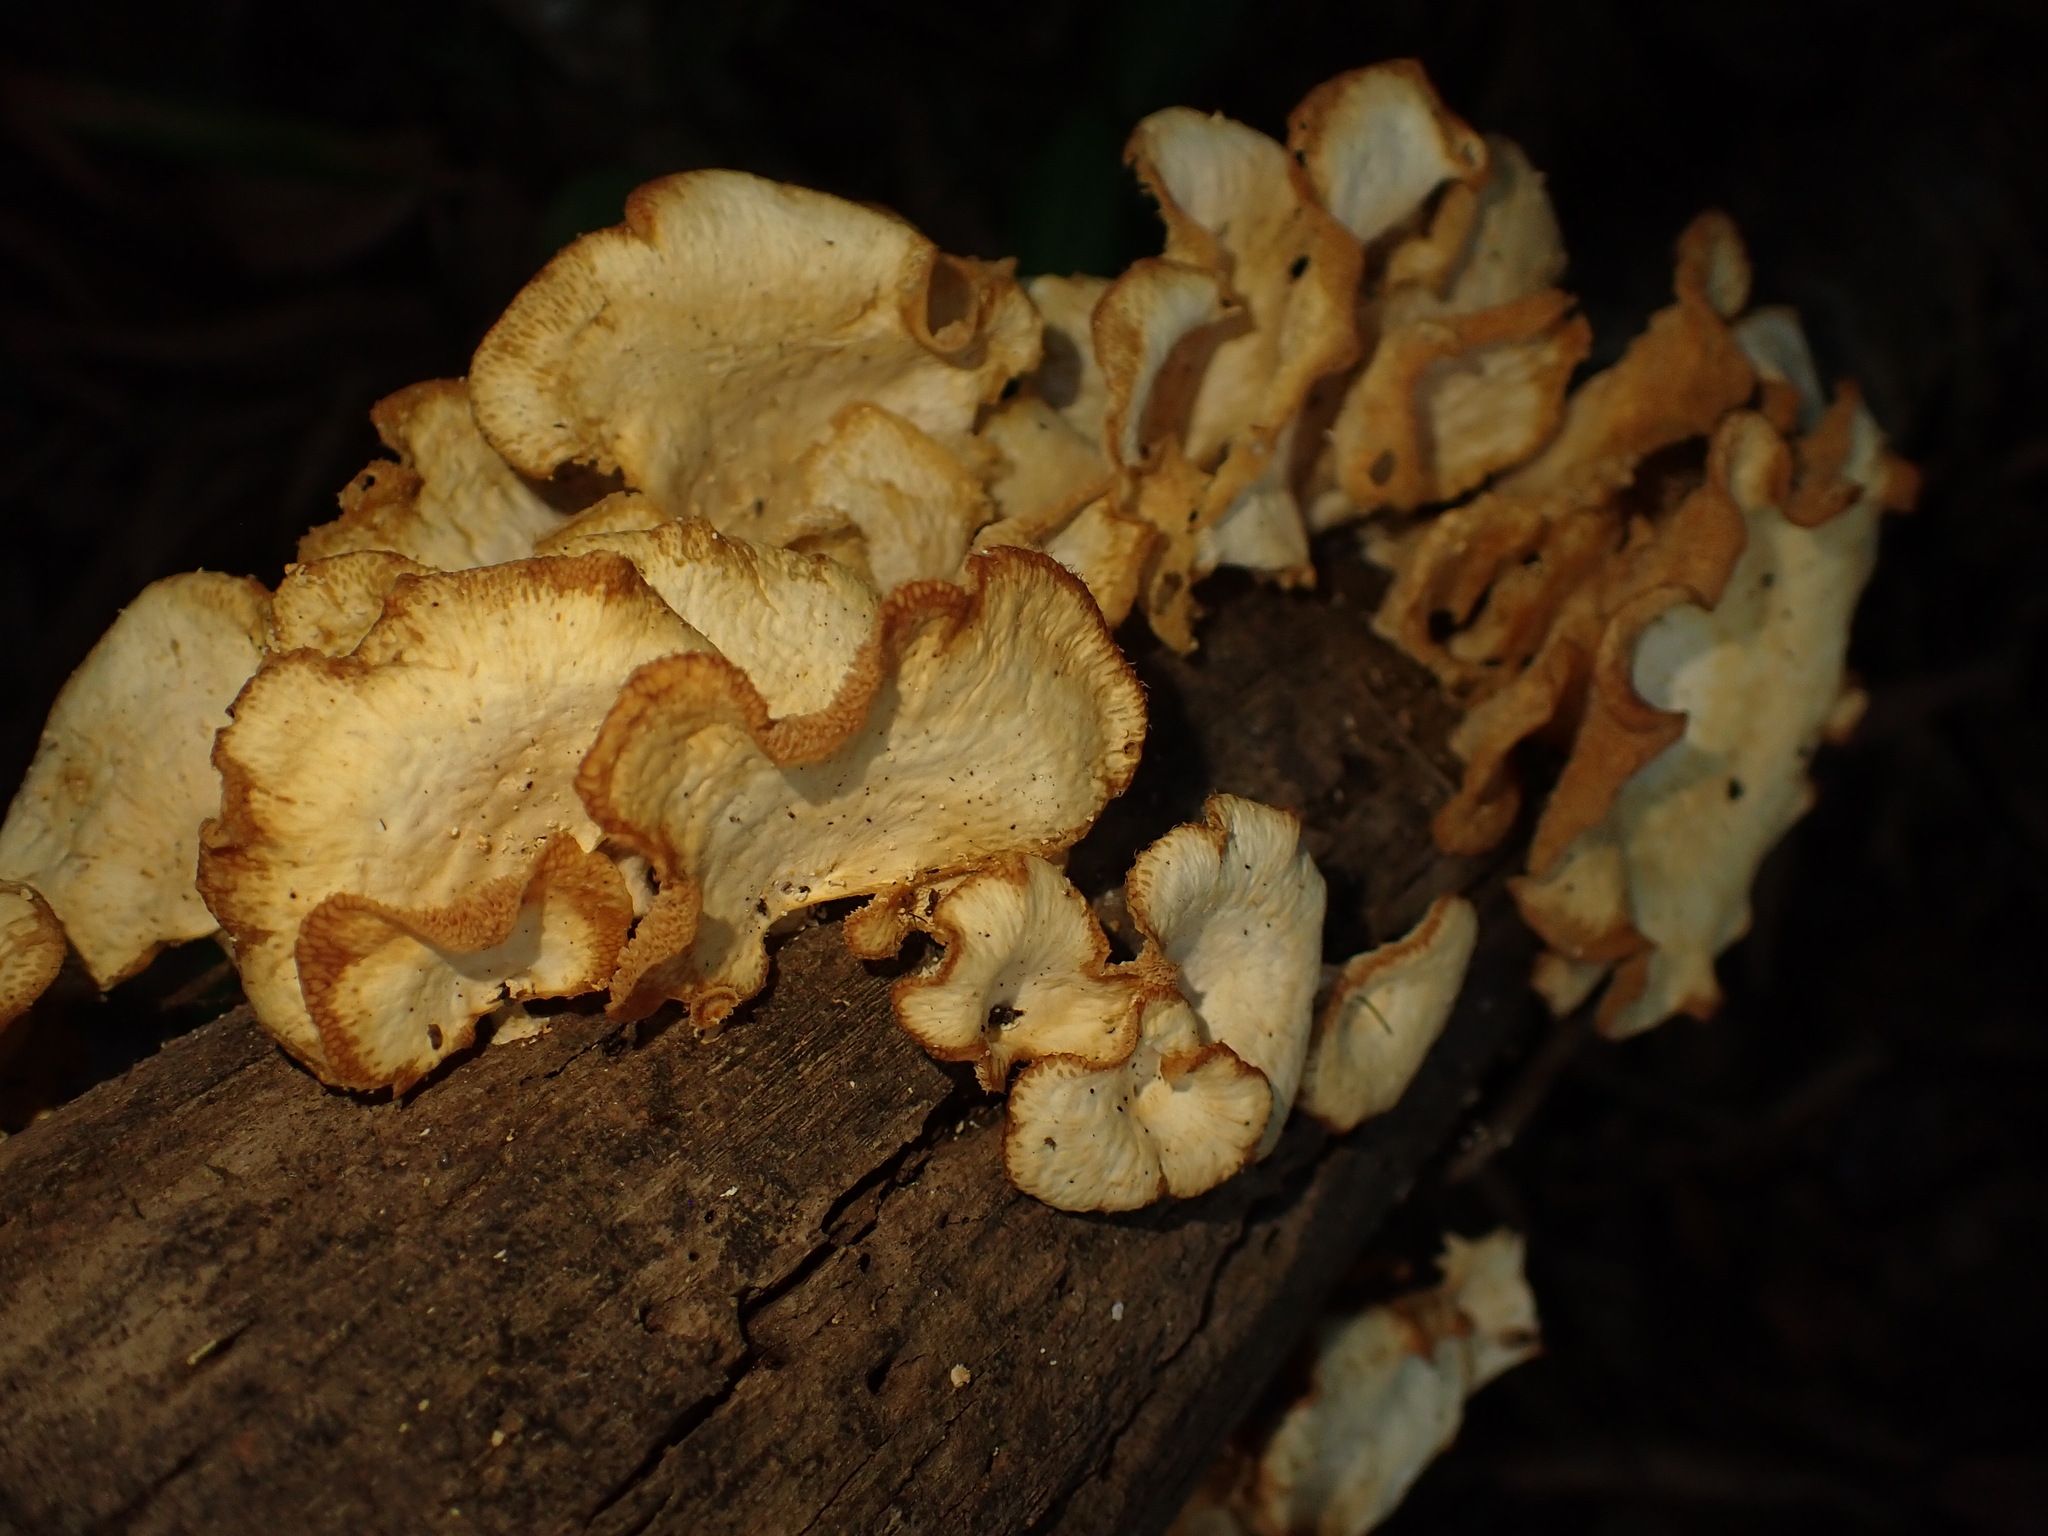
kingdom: Fungi
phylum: Basidiomycota
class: Agaricomycetes
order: Polyporales
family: Polyporaceae
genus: Favolus
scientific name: Favolus tenuiculus
